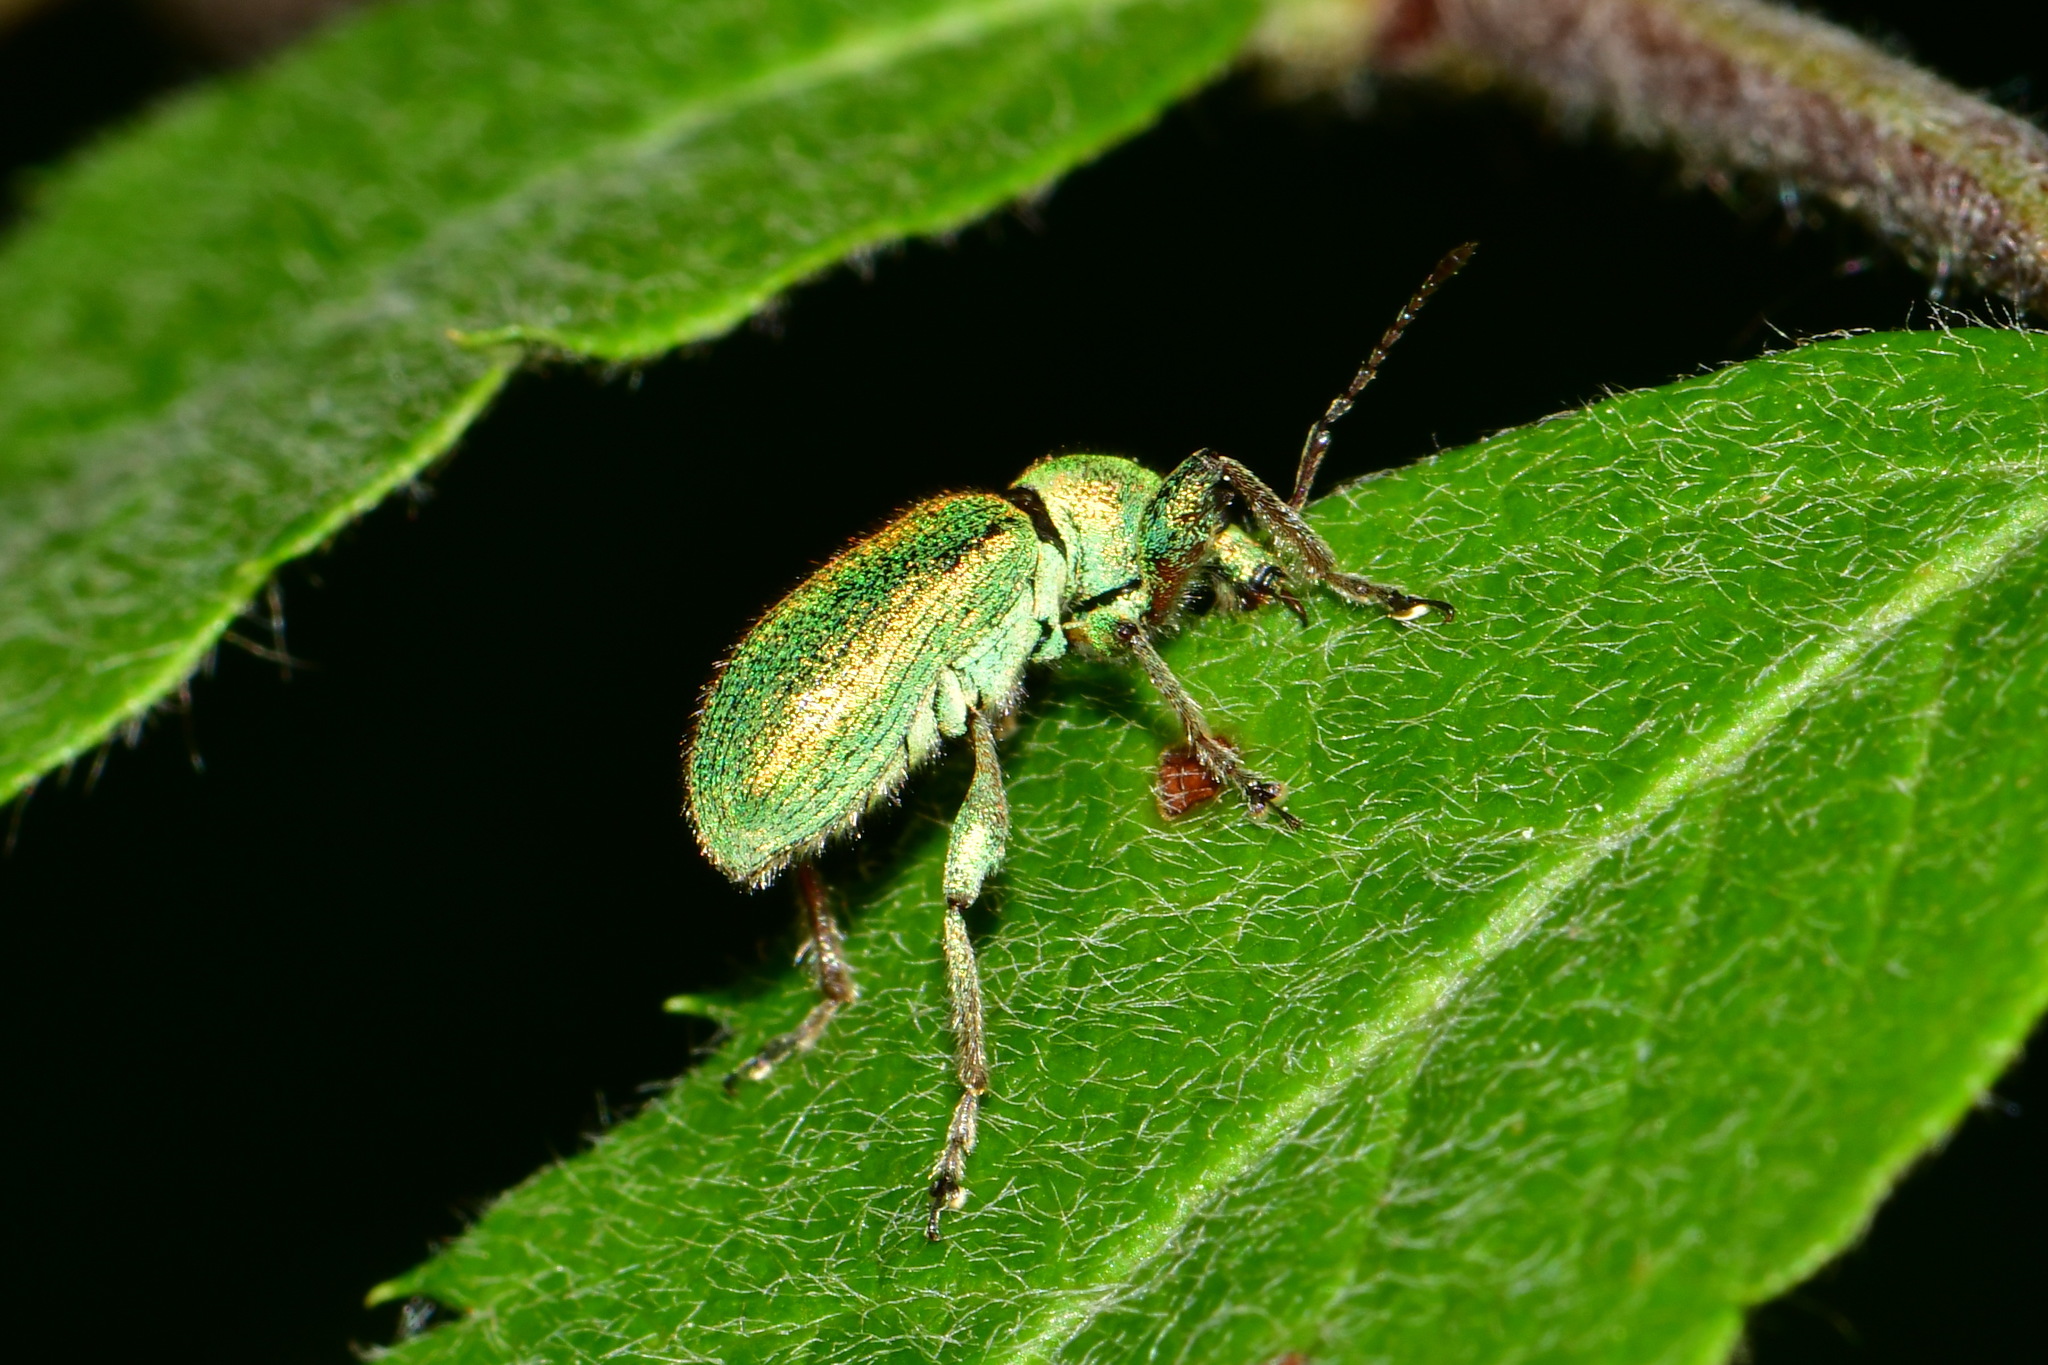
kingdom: Animalia
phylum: Arthropoda
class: Insecta
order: Coleoptera
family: Curculionidae
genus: Phyllobius
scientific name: Phyllobius arborator
